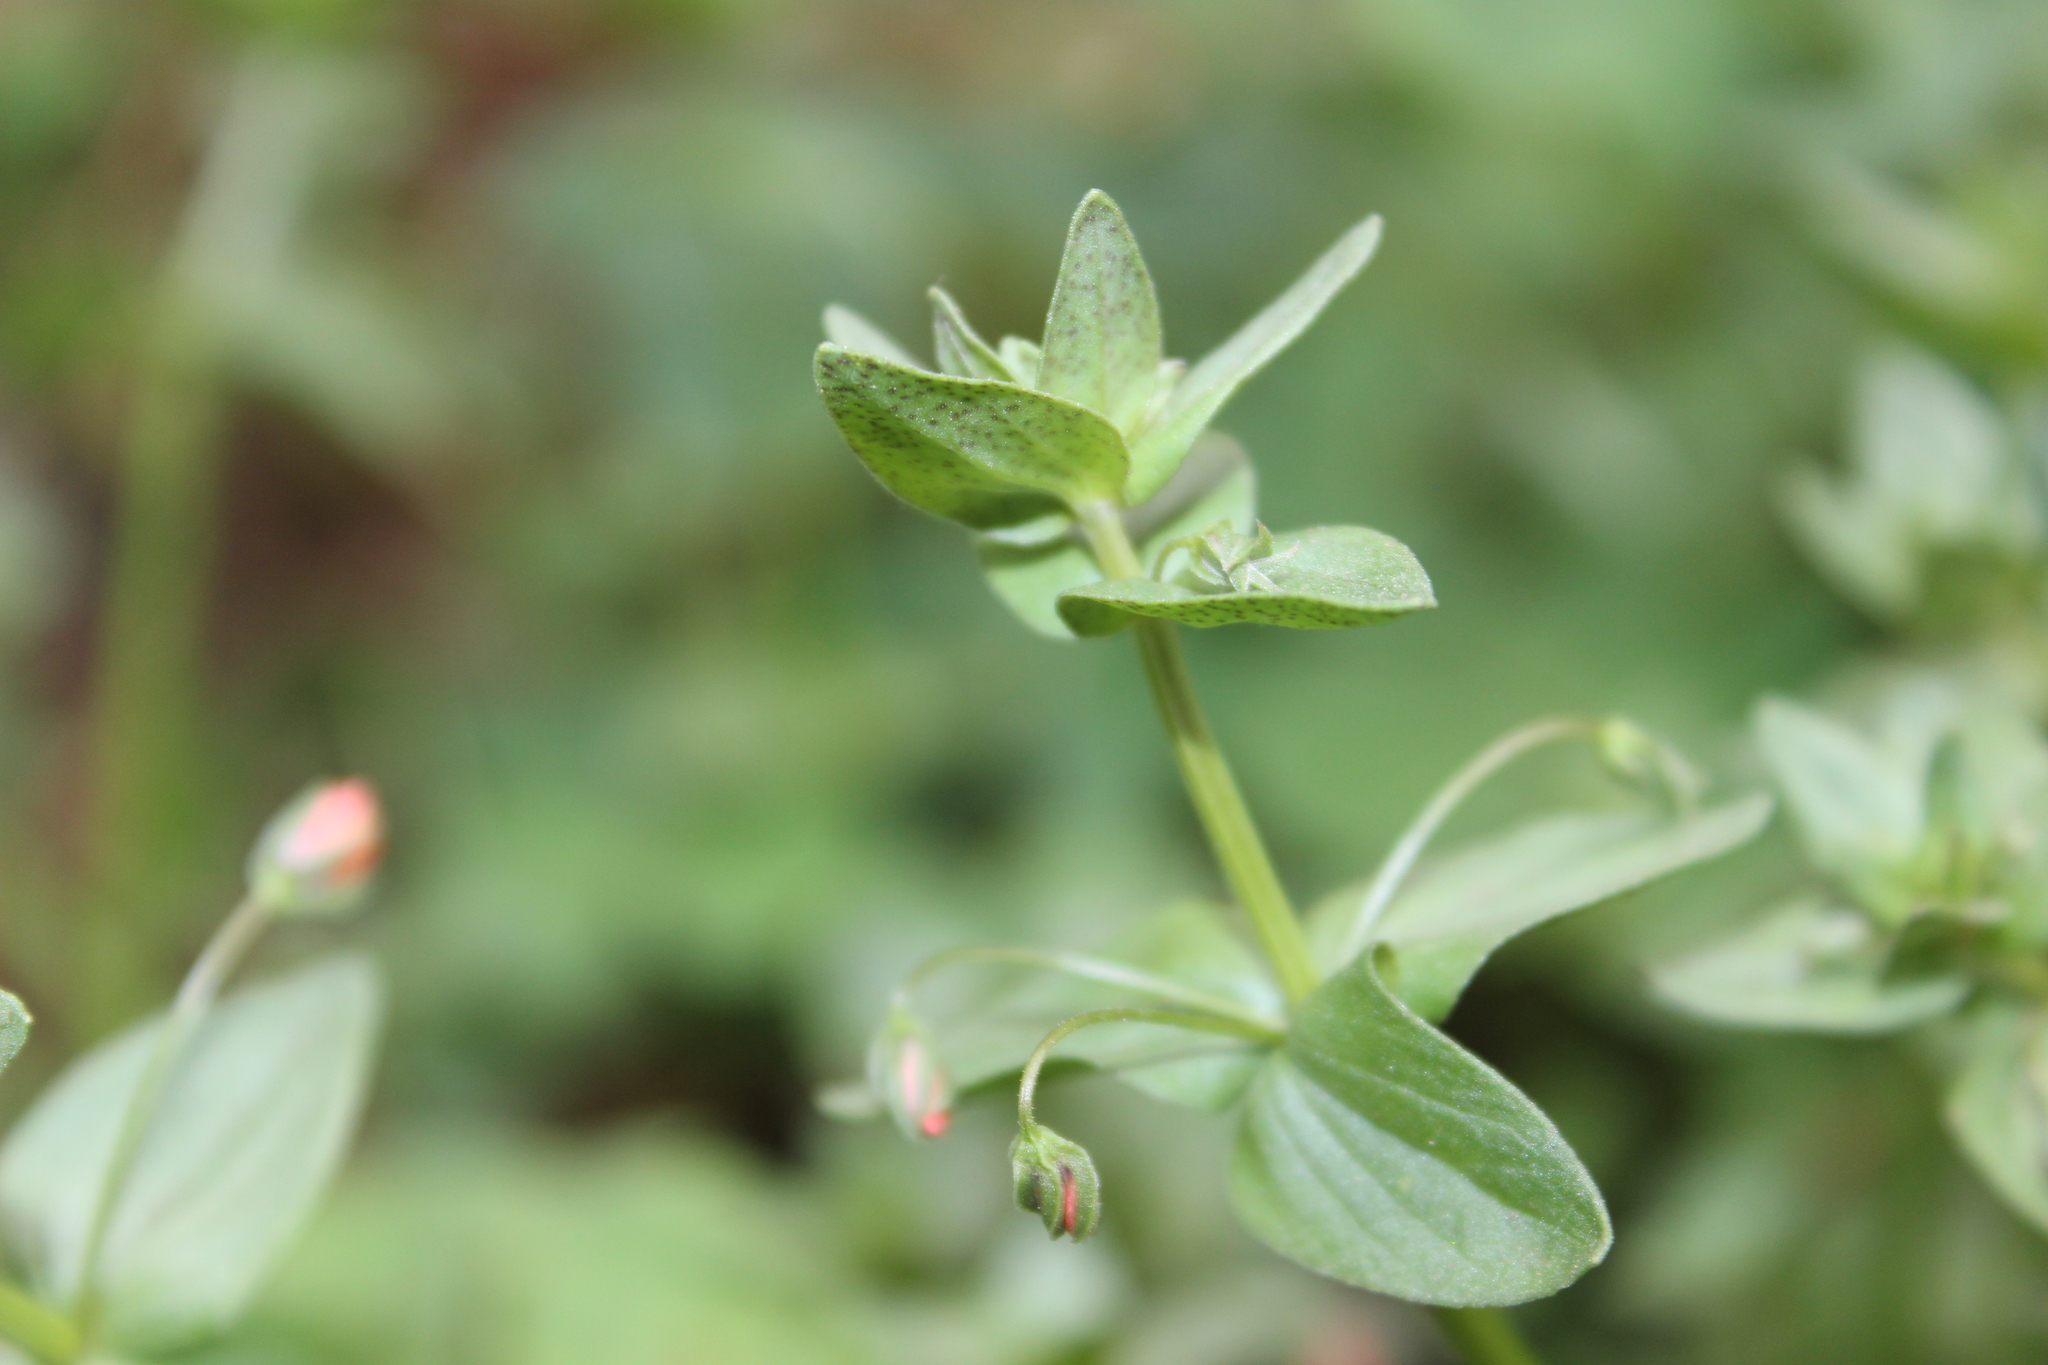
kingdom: Plantae
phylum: Tracheophyta
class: Magnoliopsida
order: Ericales
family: Primulaceae
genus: Lysimachia
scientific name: Lysimachia arvensis
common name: Scarlet pimpernel
